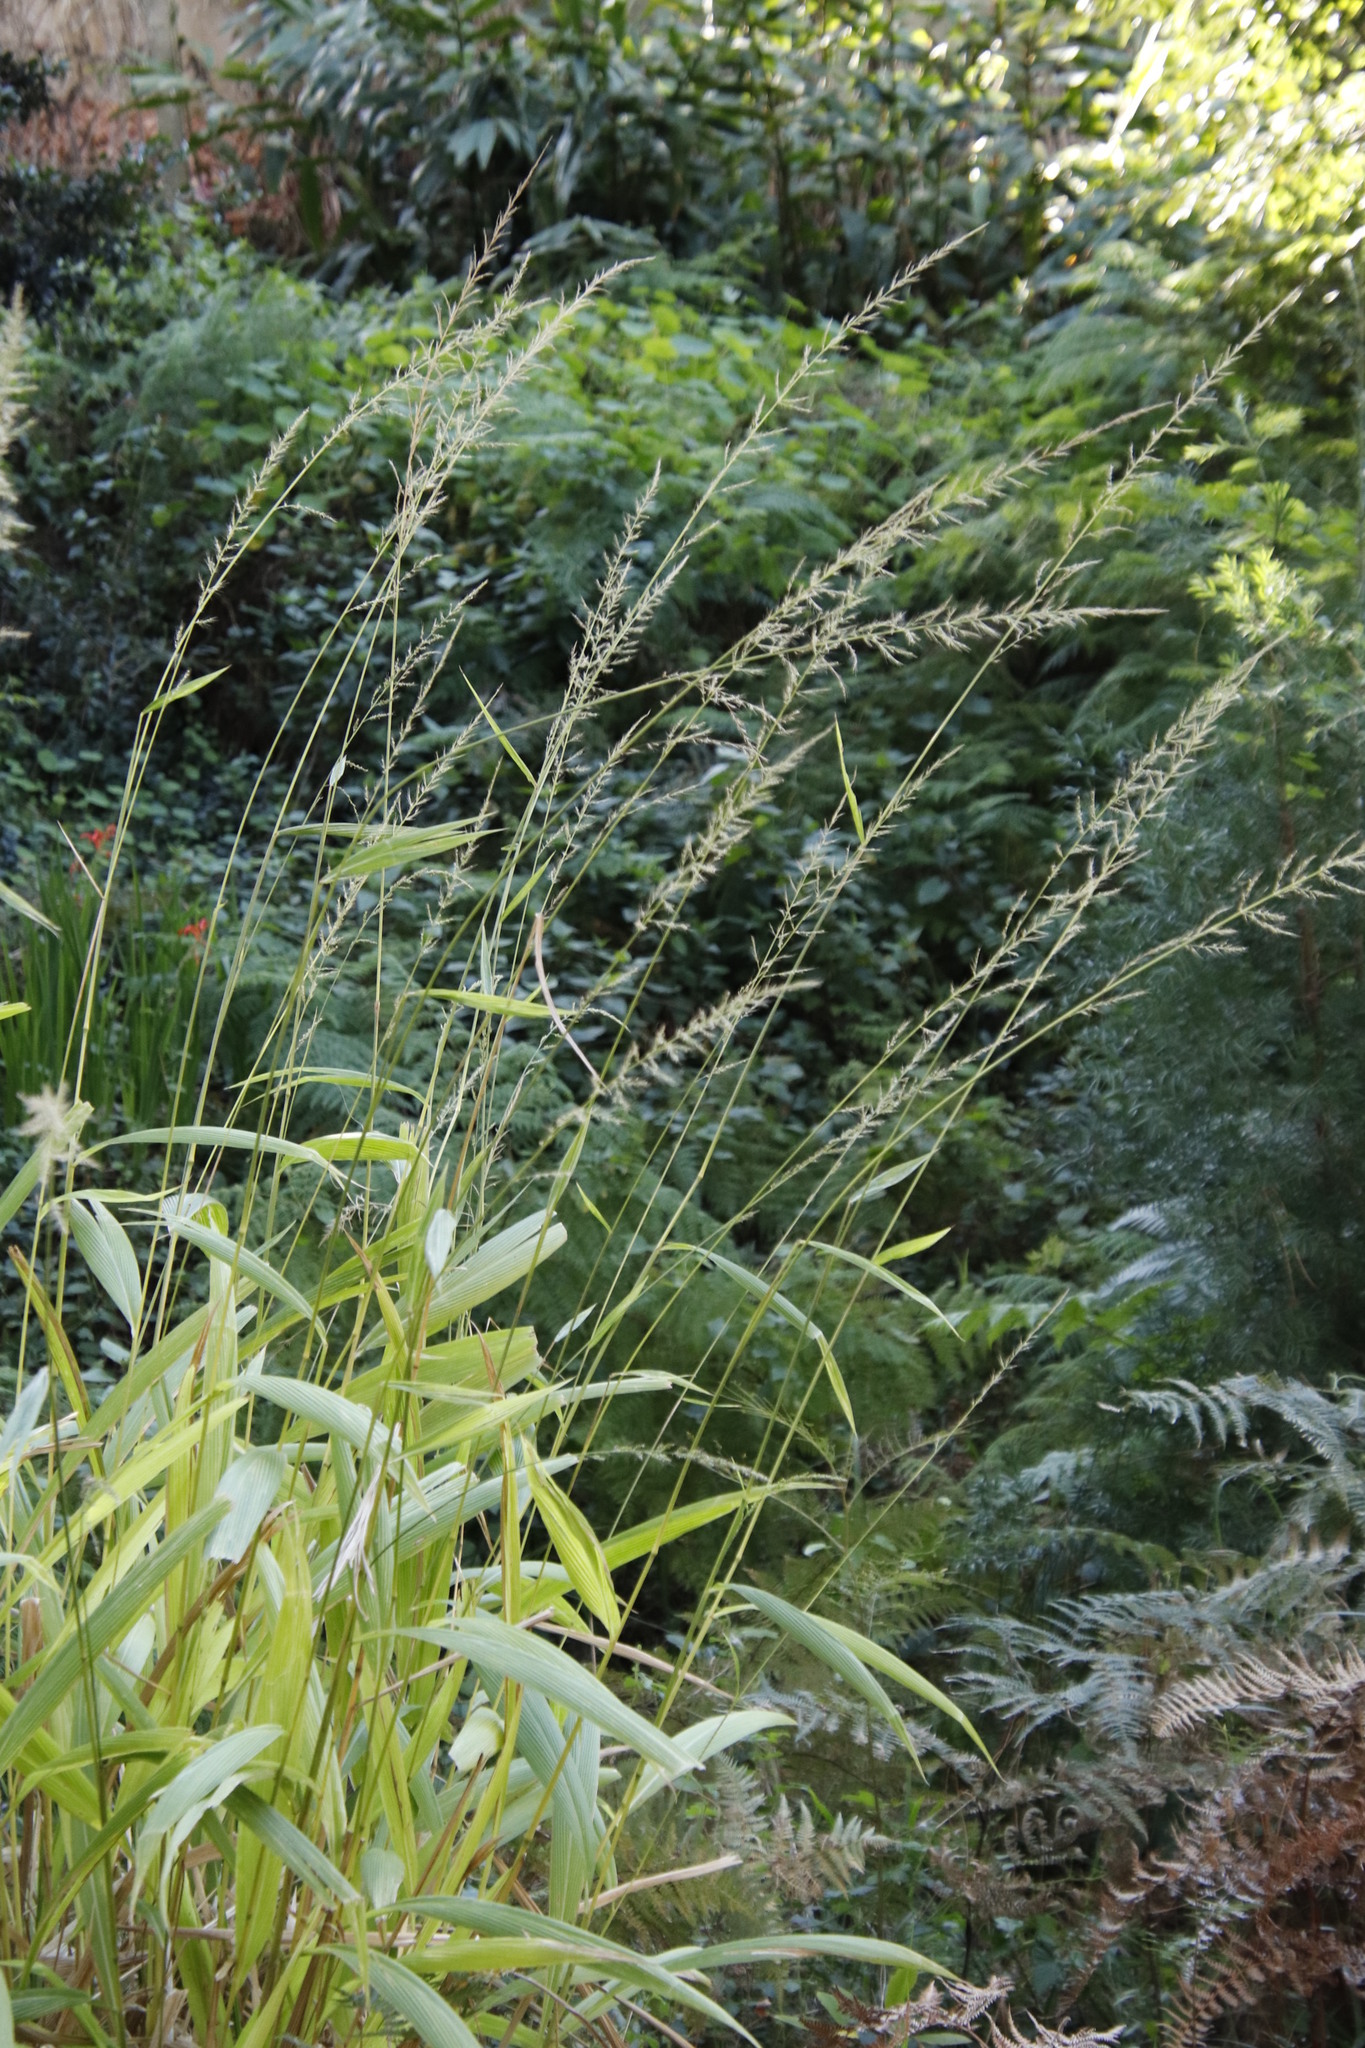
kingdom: Plantae
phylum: Tracheophyta
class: Liliopsida
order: Poales
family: Poaceae
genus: Setaria
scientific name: Setaria megaphylla
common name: Bigleaf bristlegrass
